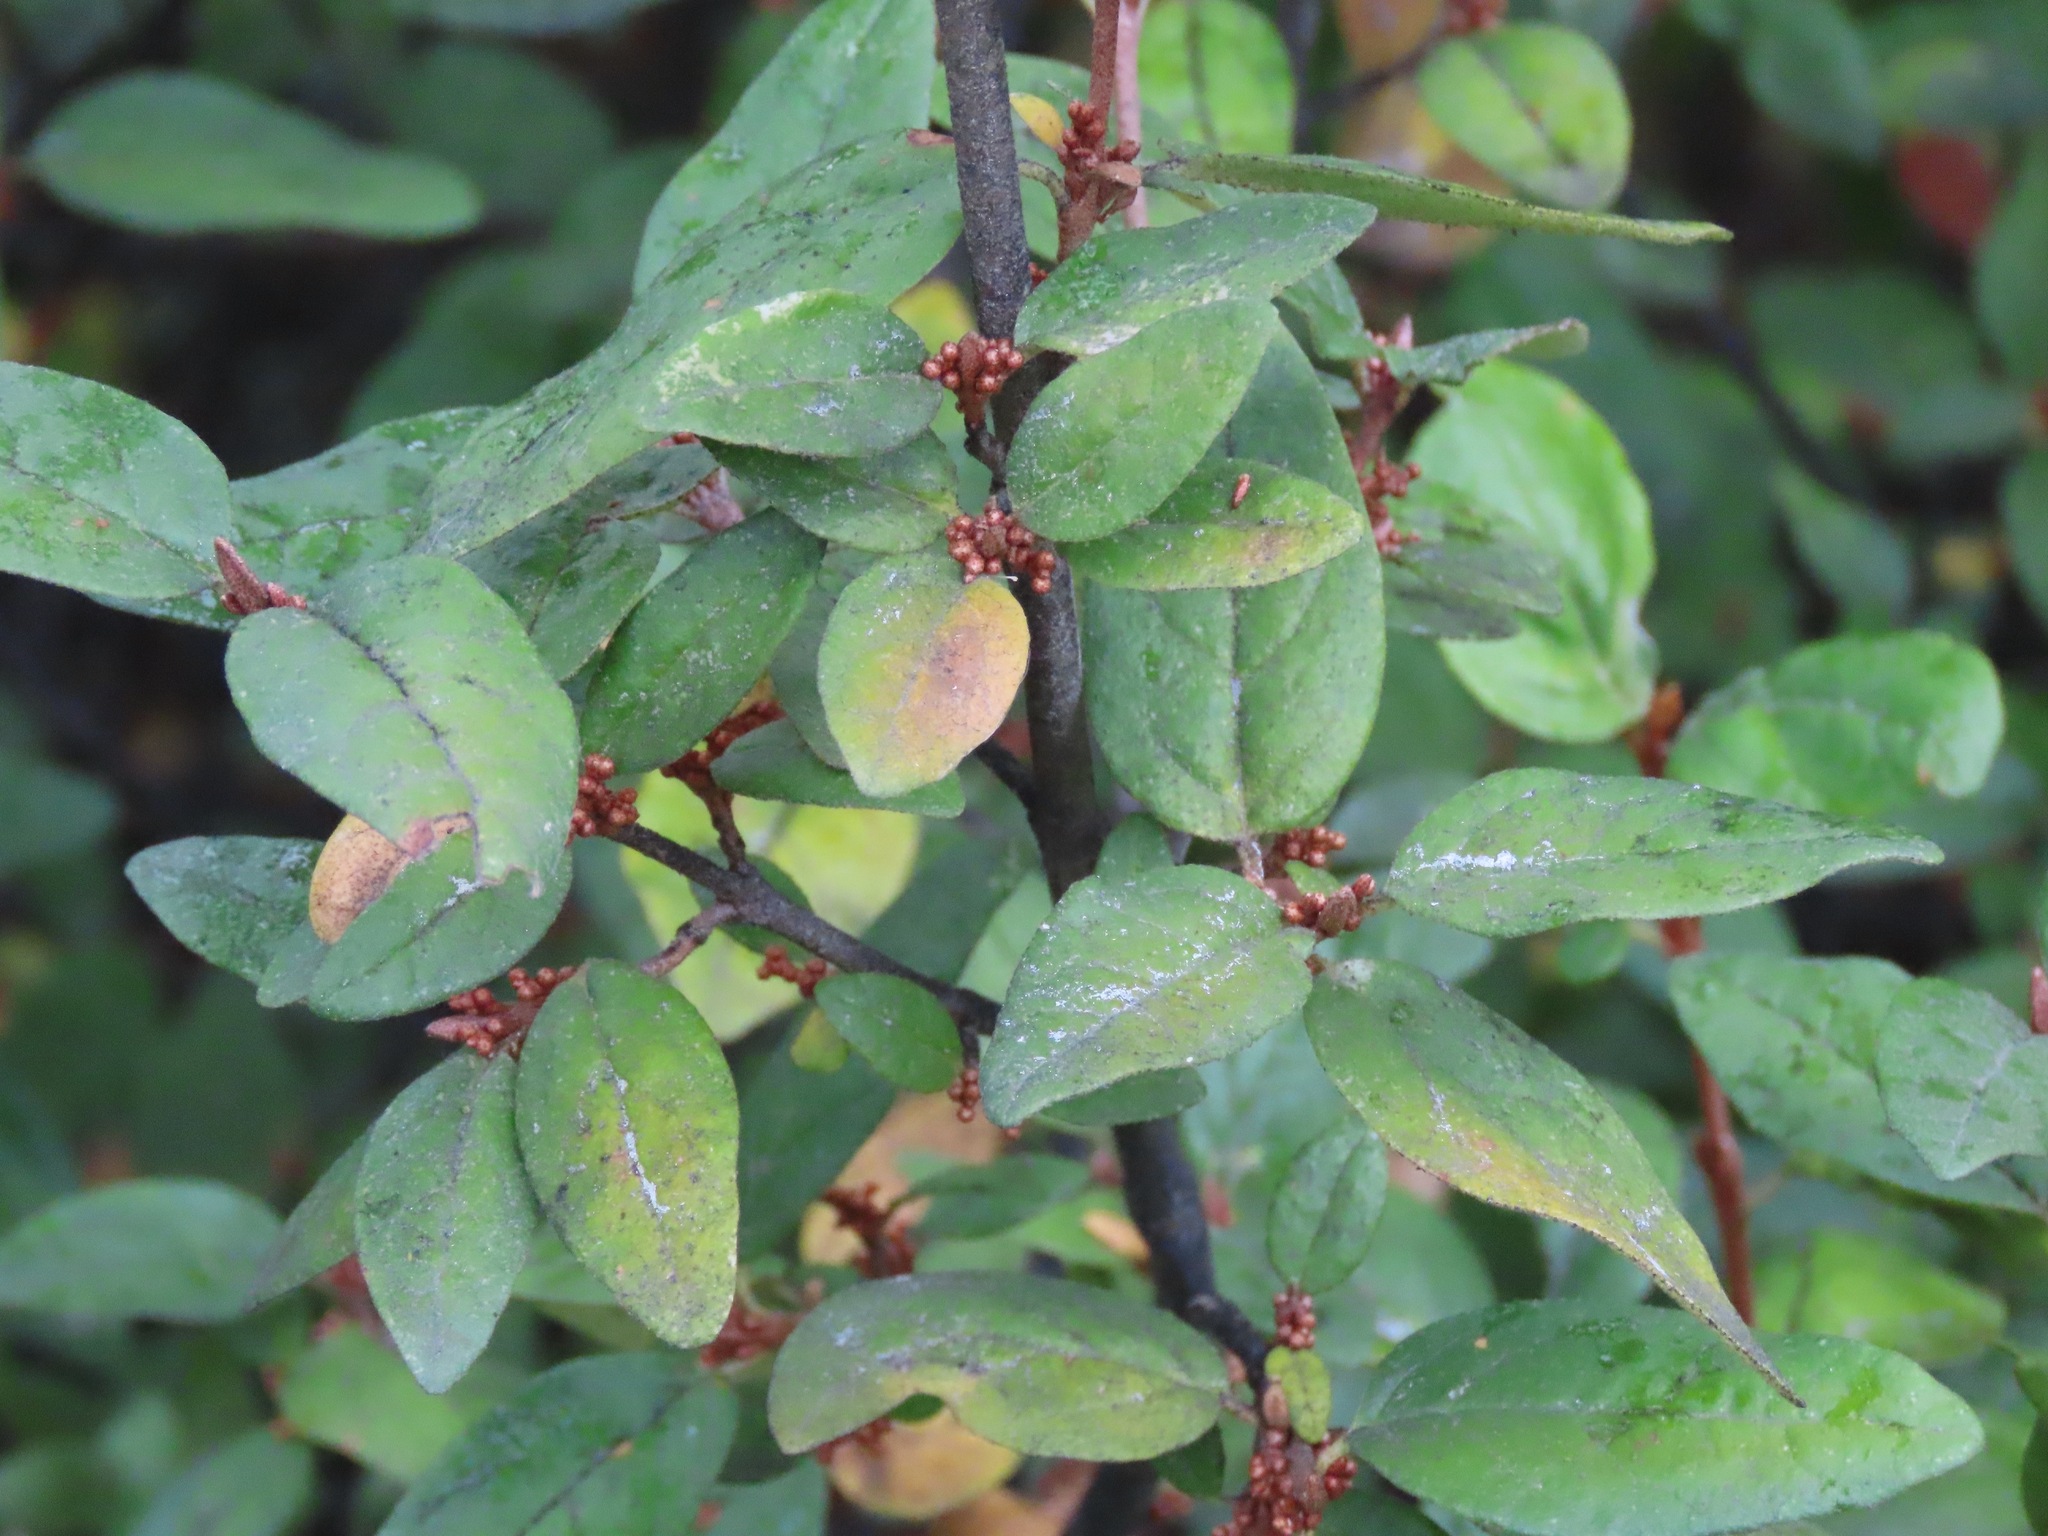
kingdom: Plantae
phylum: Tracheophyta
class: Magnoliopsida
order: Rosales
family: Elaeagnaceae
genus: Shepherdia
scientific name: Shepherdia canadensis
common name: Soapberry
